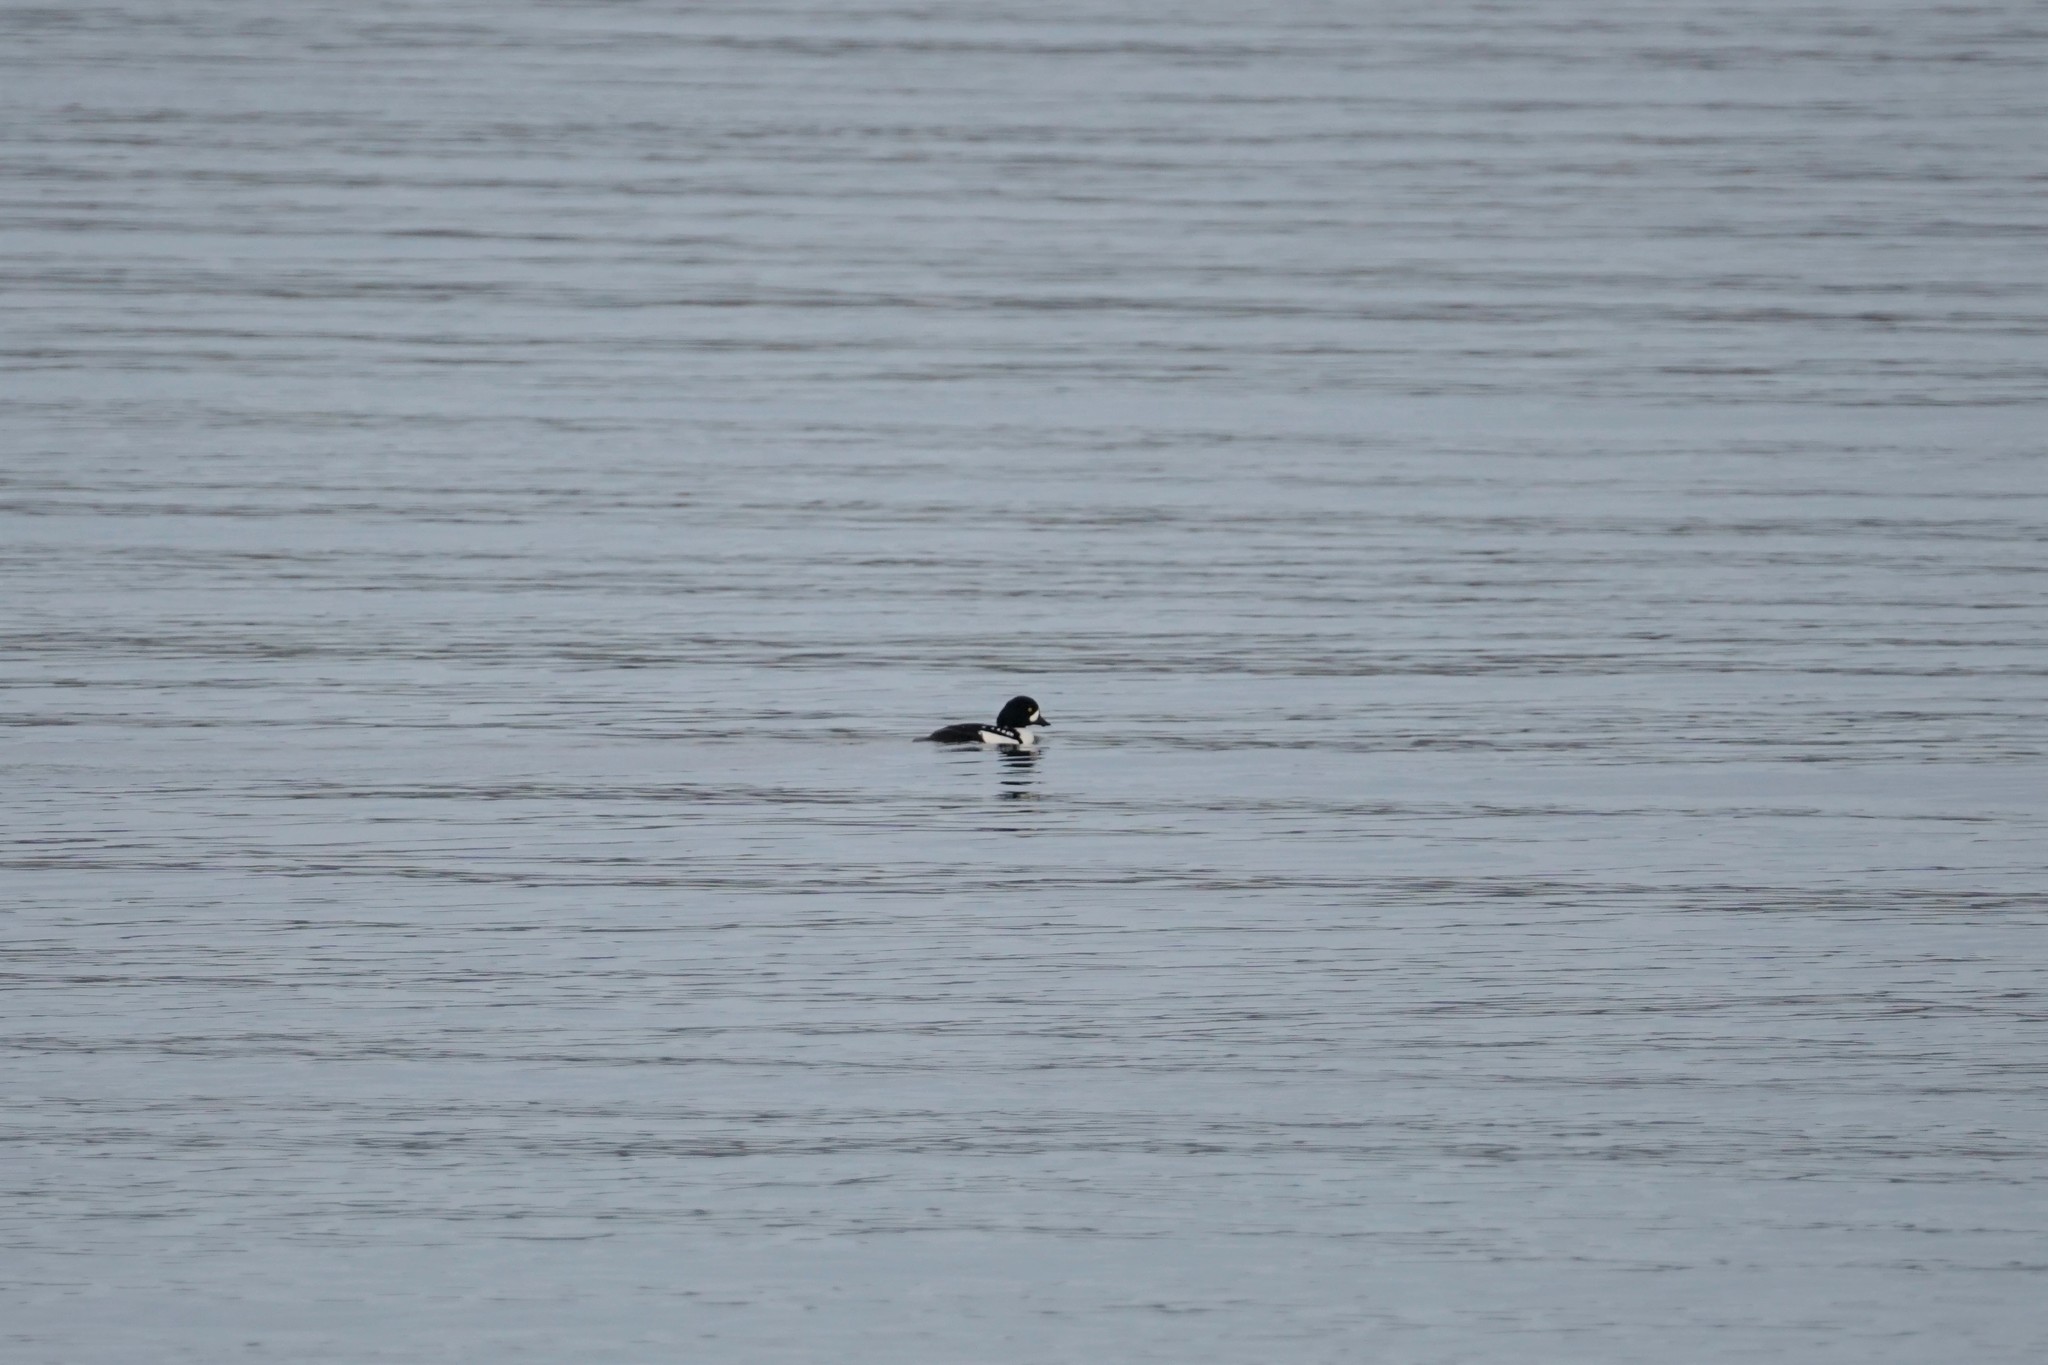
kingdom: Animalia
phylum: Chordata
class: Aves
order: Anseriformes
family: Anatidae
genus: Bucephala
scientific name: Bucephala islandica
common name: Barrow's goldeneye
